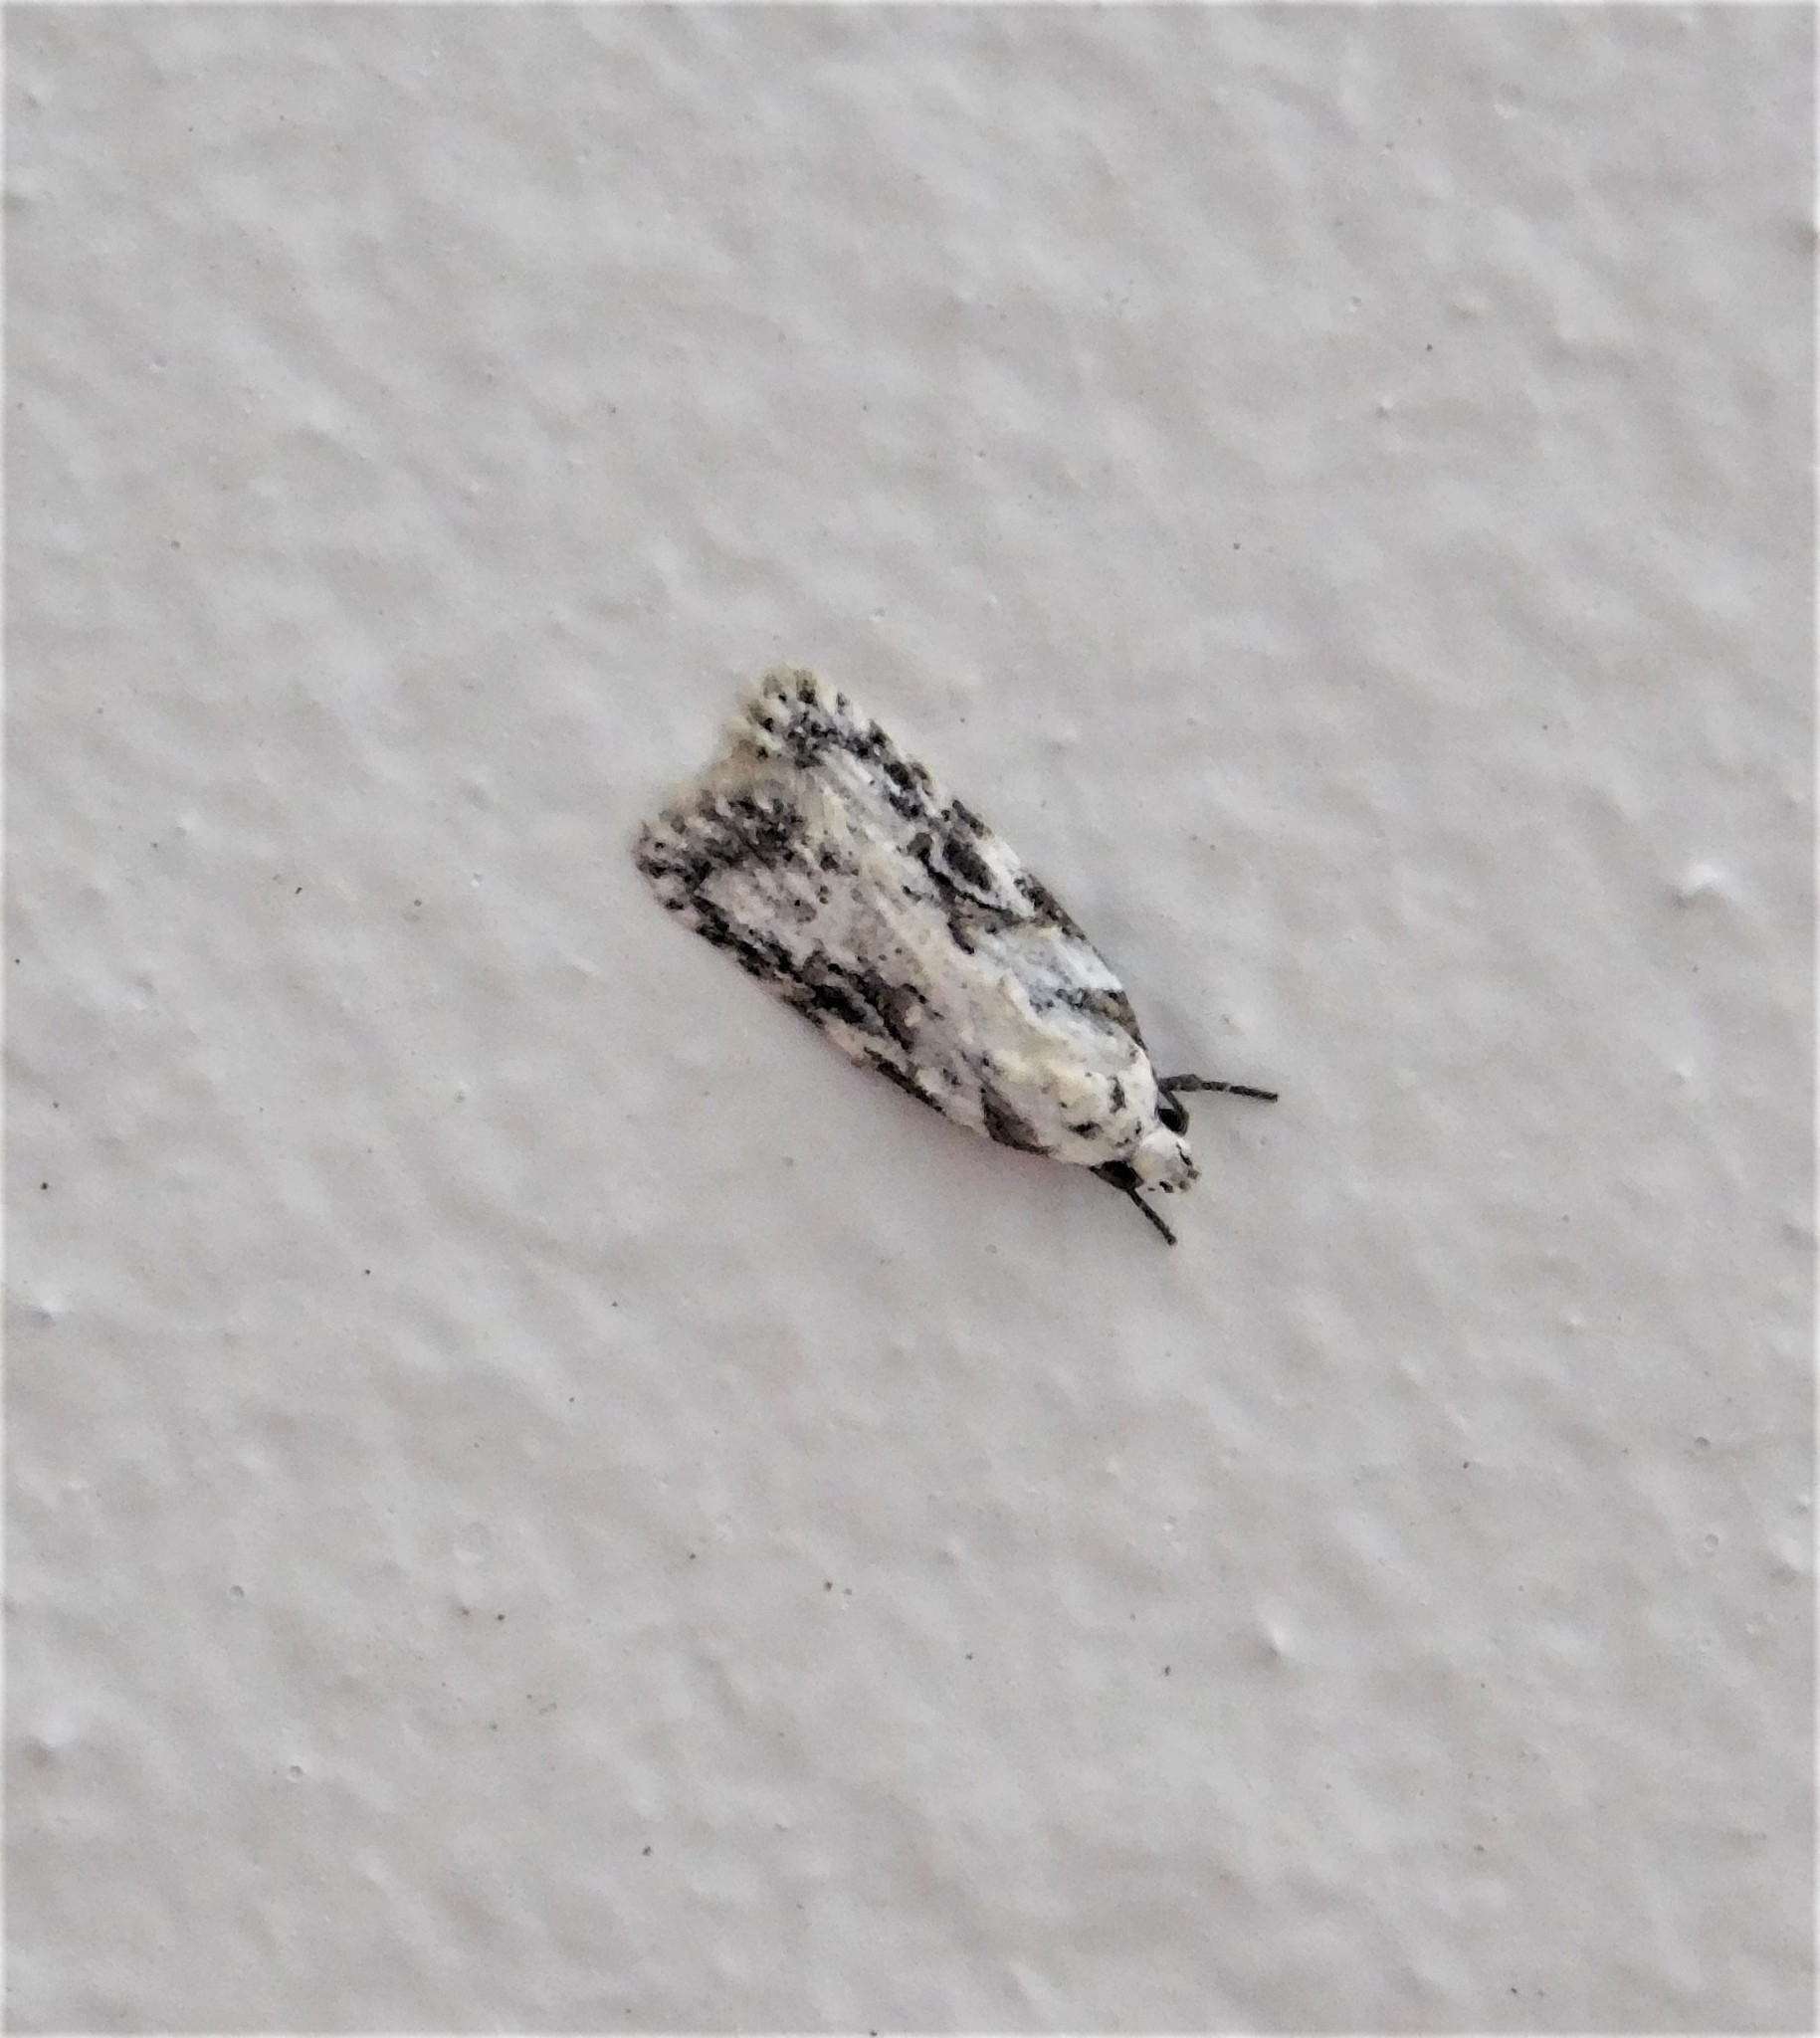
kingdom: Animalia
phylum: Arthropoda
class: Insecta
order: Lepidoptera
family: Oecophoridae
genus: Izatha
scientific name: Izatha mesoschista
